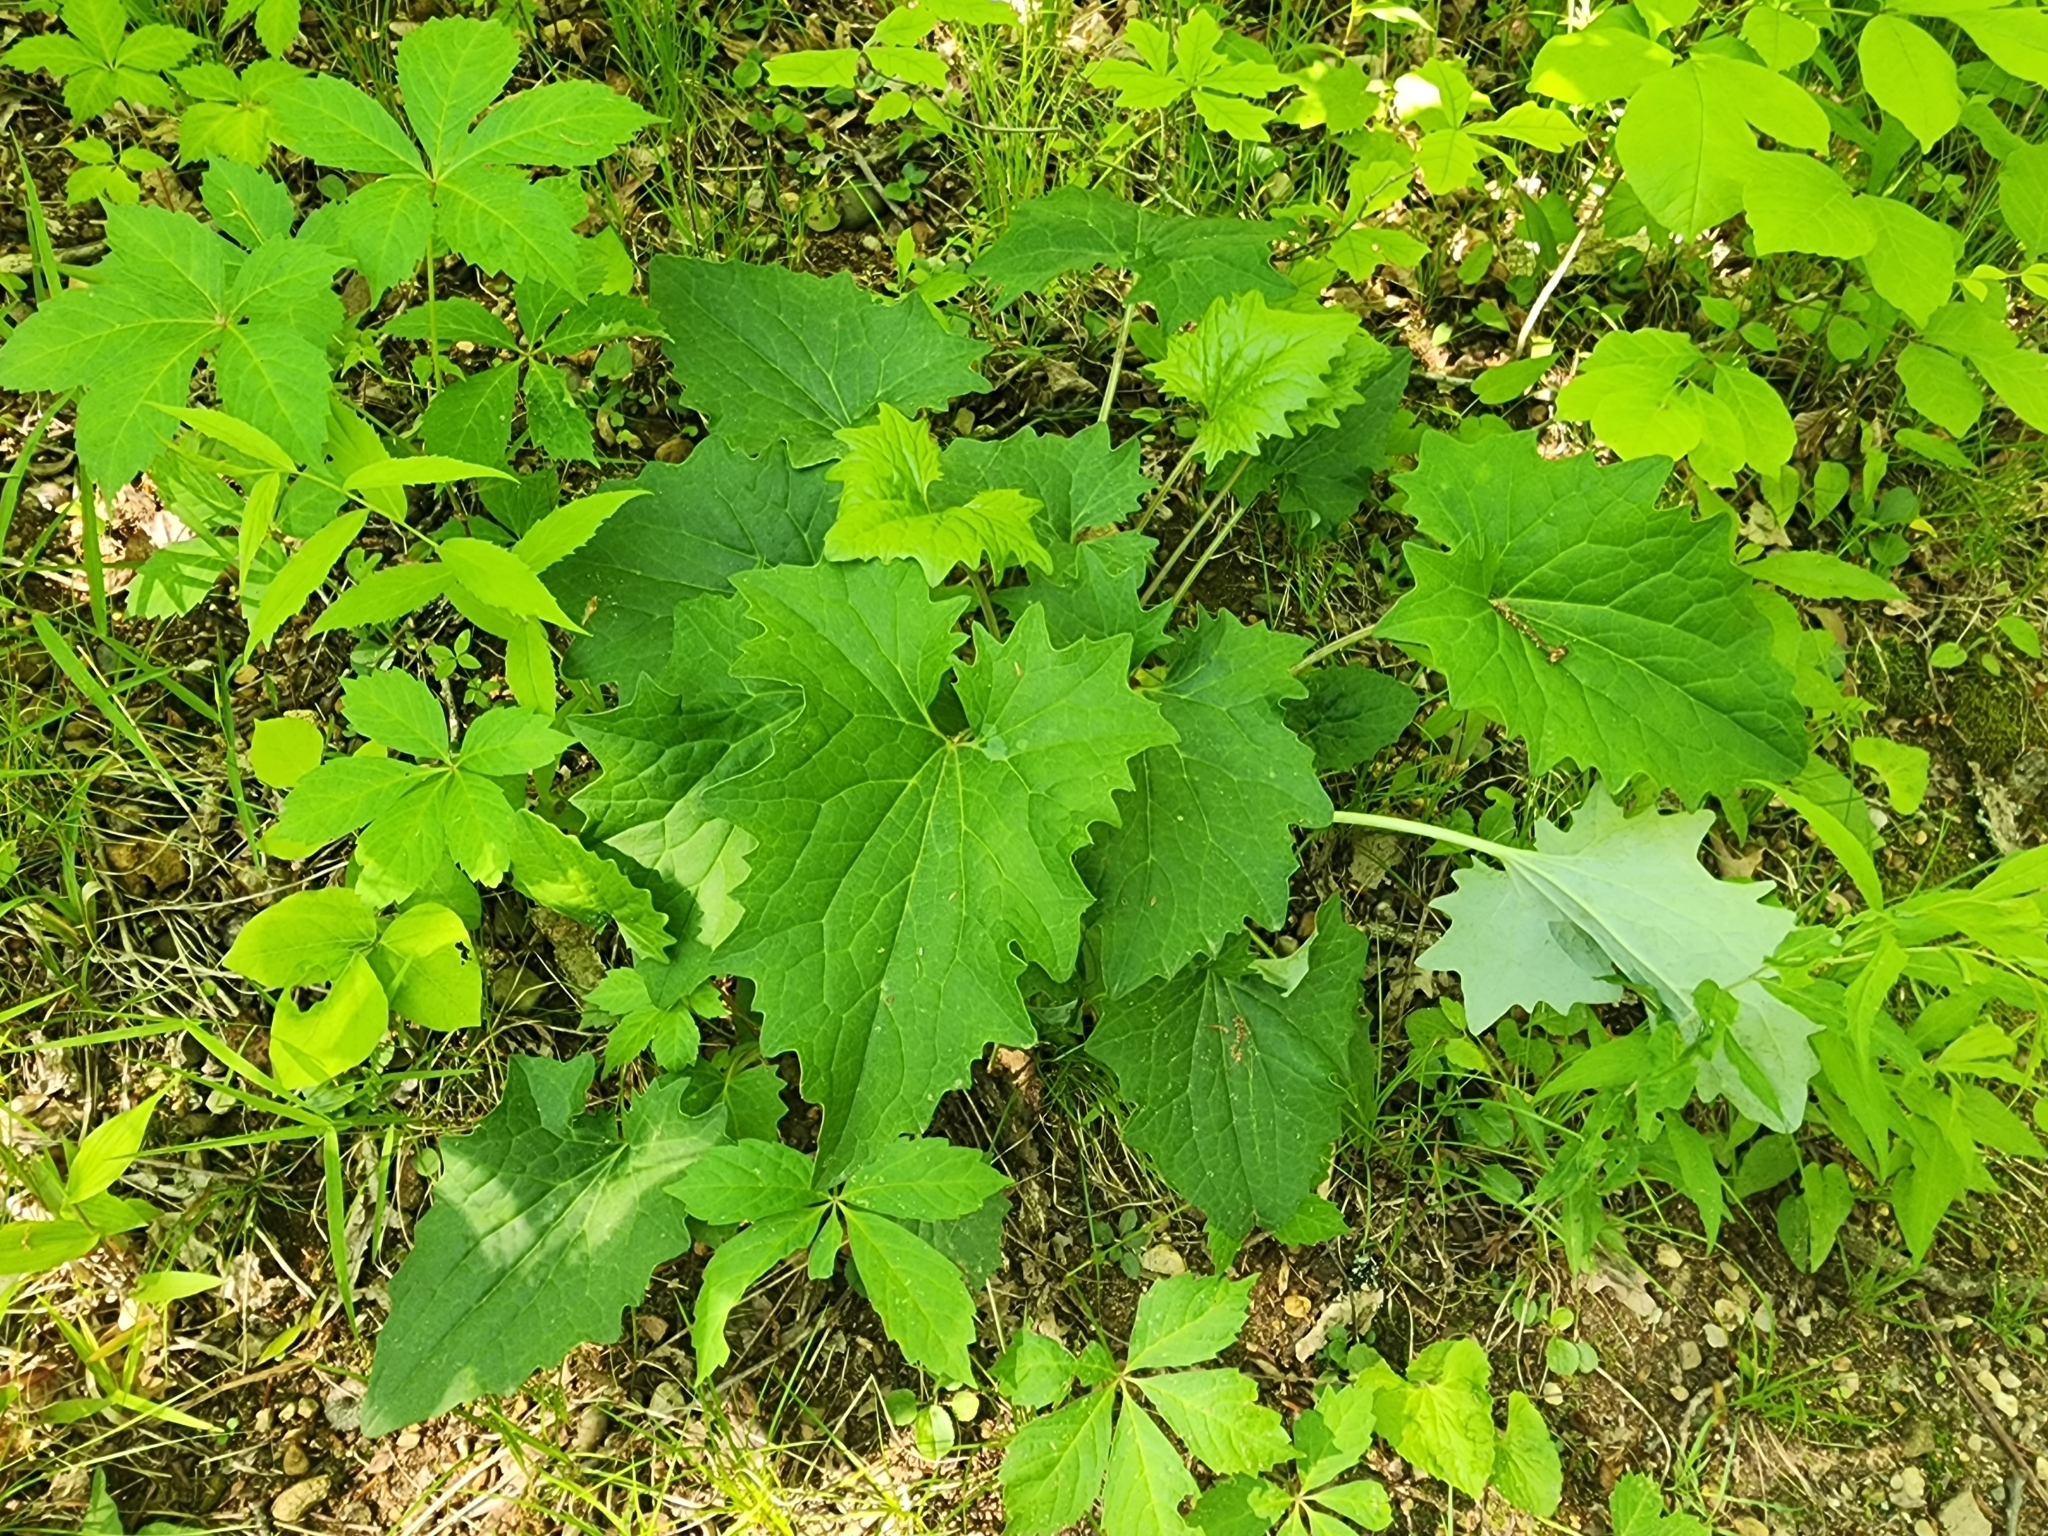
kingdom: Plantae
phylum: Tracheophyta
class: Magnoliopsida
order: Asterales
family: Asteraceae
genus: Arnoglossum
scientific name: Arnoglossum atriplicifolium
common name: Pale indian-plantain
